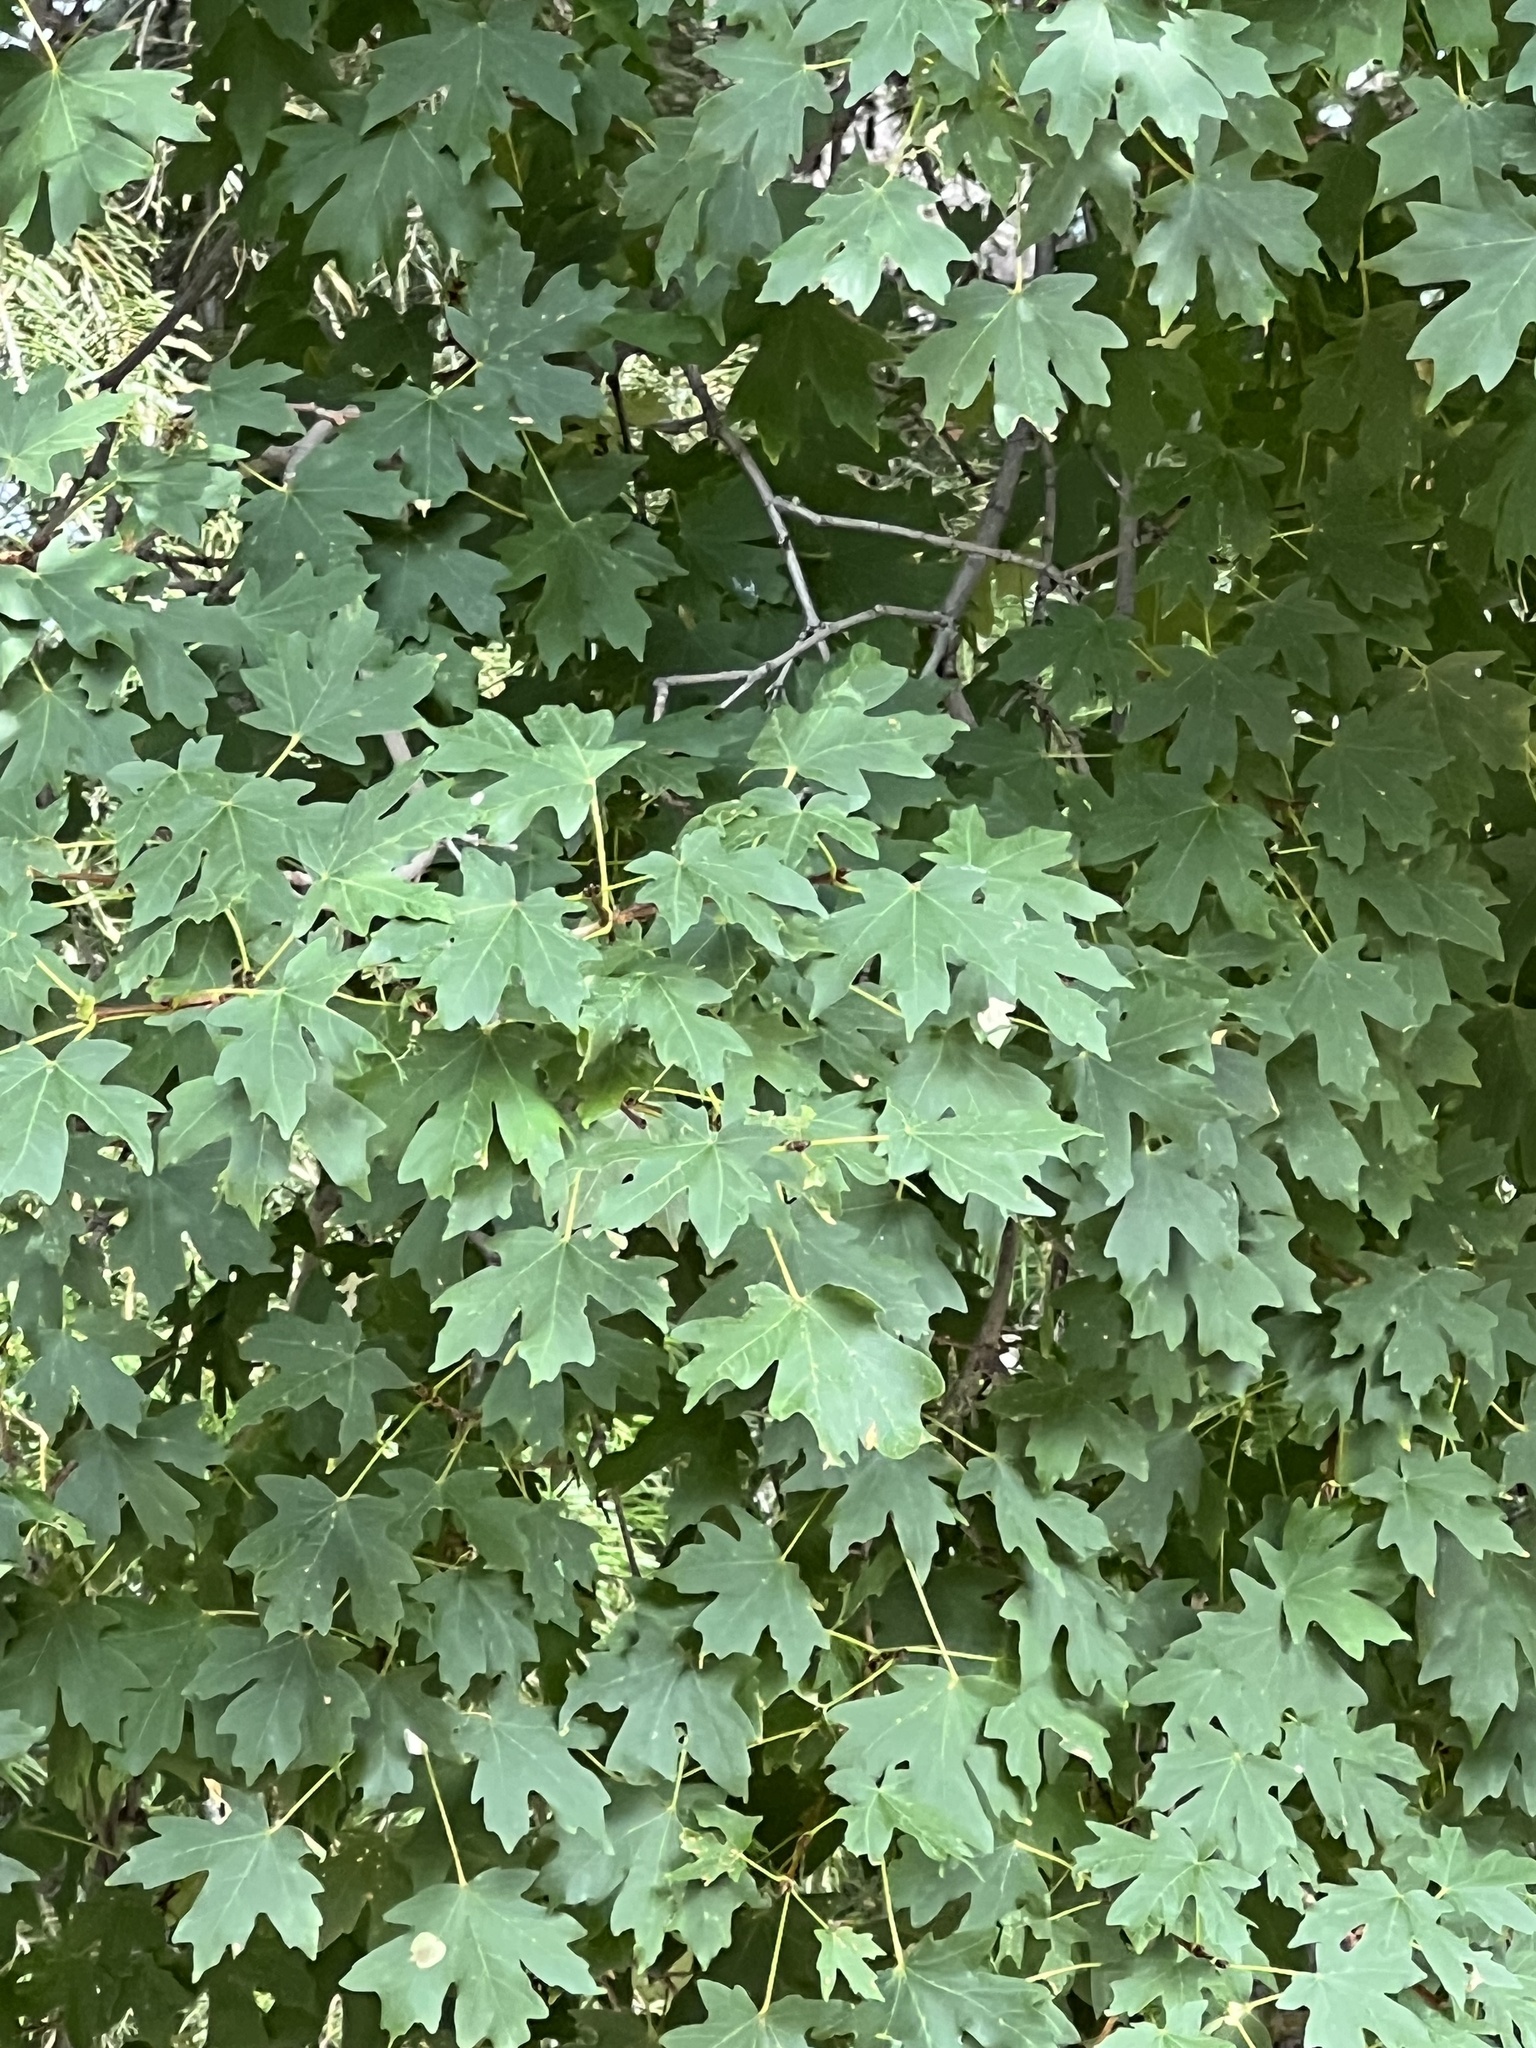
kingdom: Plantae
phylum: Tracheophyta
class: Magnoliopsida
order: Sapindales
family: Sapindaceae
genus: Acer
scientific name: Acer grandidentatum
